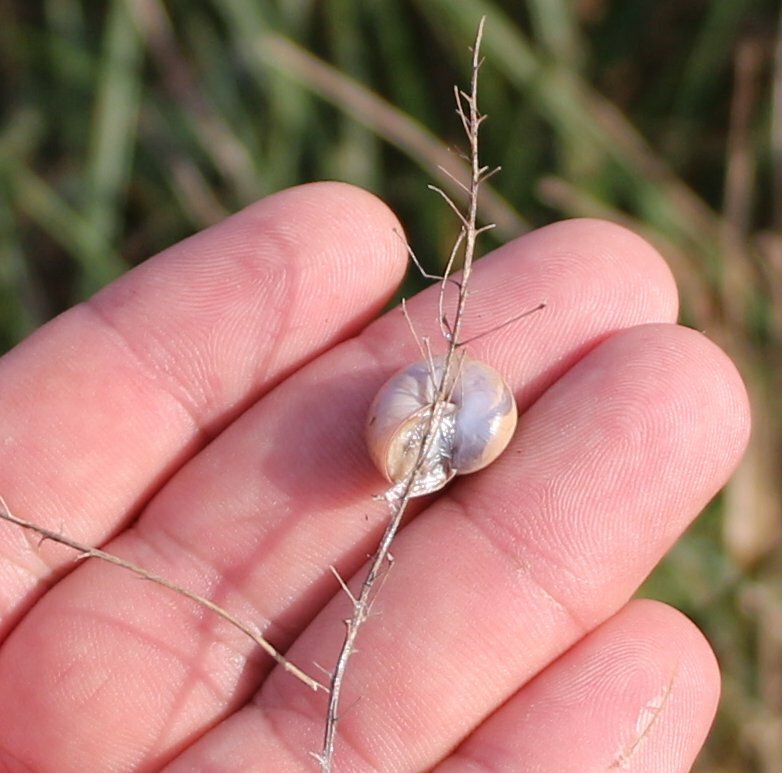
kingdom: Animalia
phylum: Mollusca
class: Gastropoda
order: Stylommatophora
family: Hygromiidae
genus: Monacha
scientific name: Monacha cartusiana
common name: Carthusian snail
